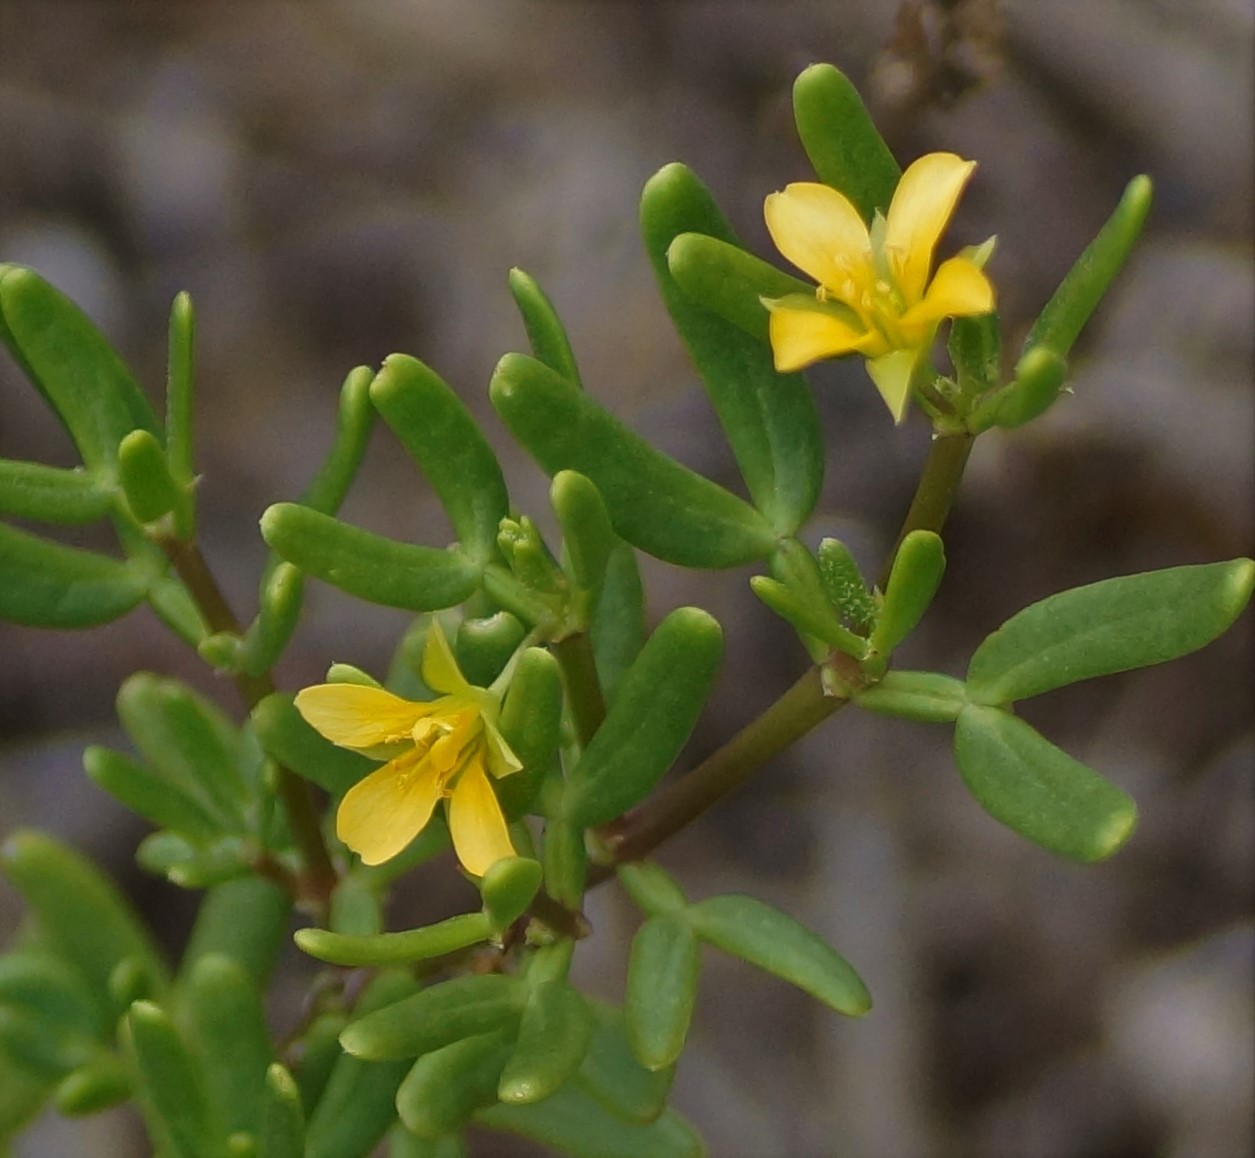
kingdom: Plantae
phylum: Tracheophyta
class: Magnoliopsida
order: Zygophyllales
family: Zygophyllaceae
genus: Roepera
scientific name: Roepera billardieri
